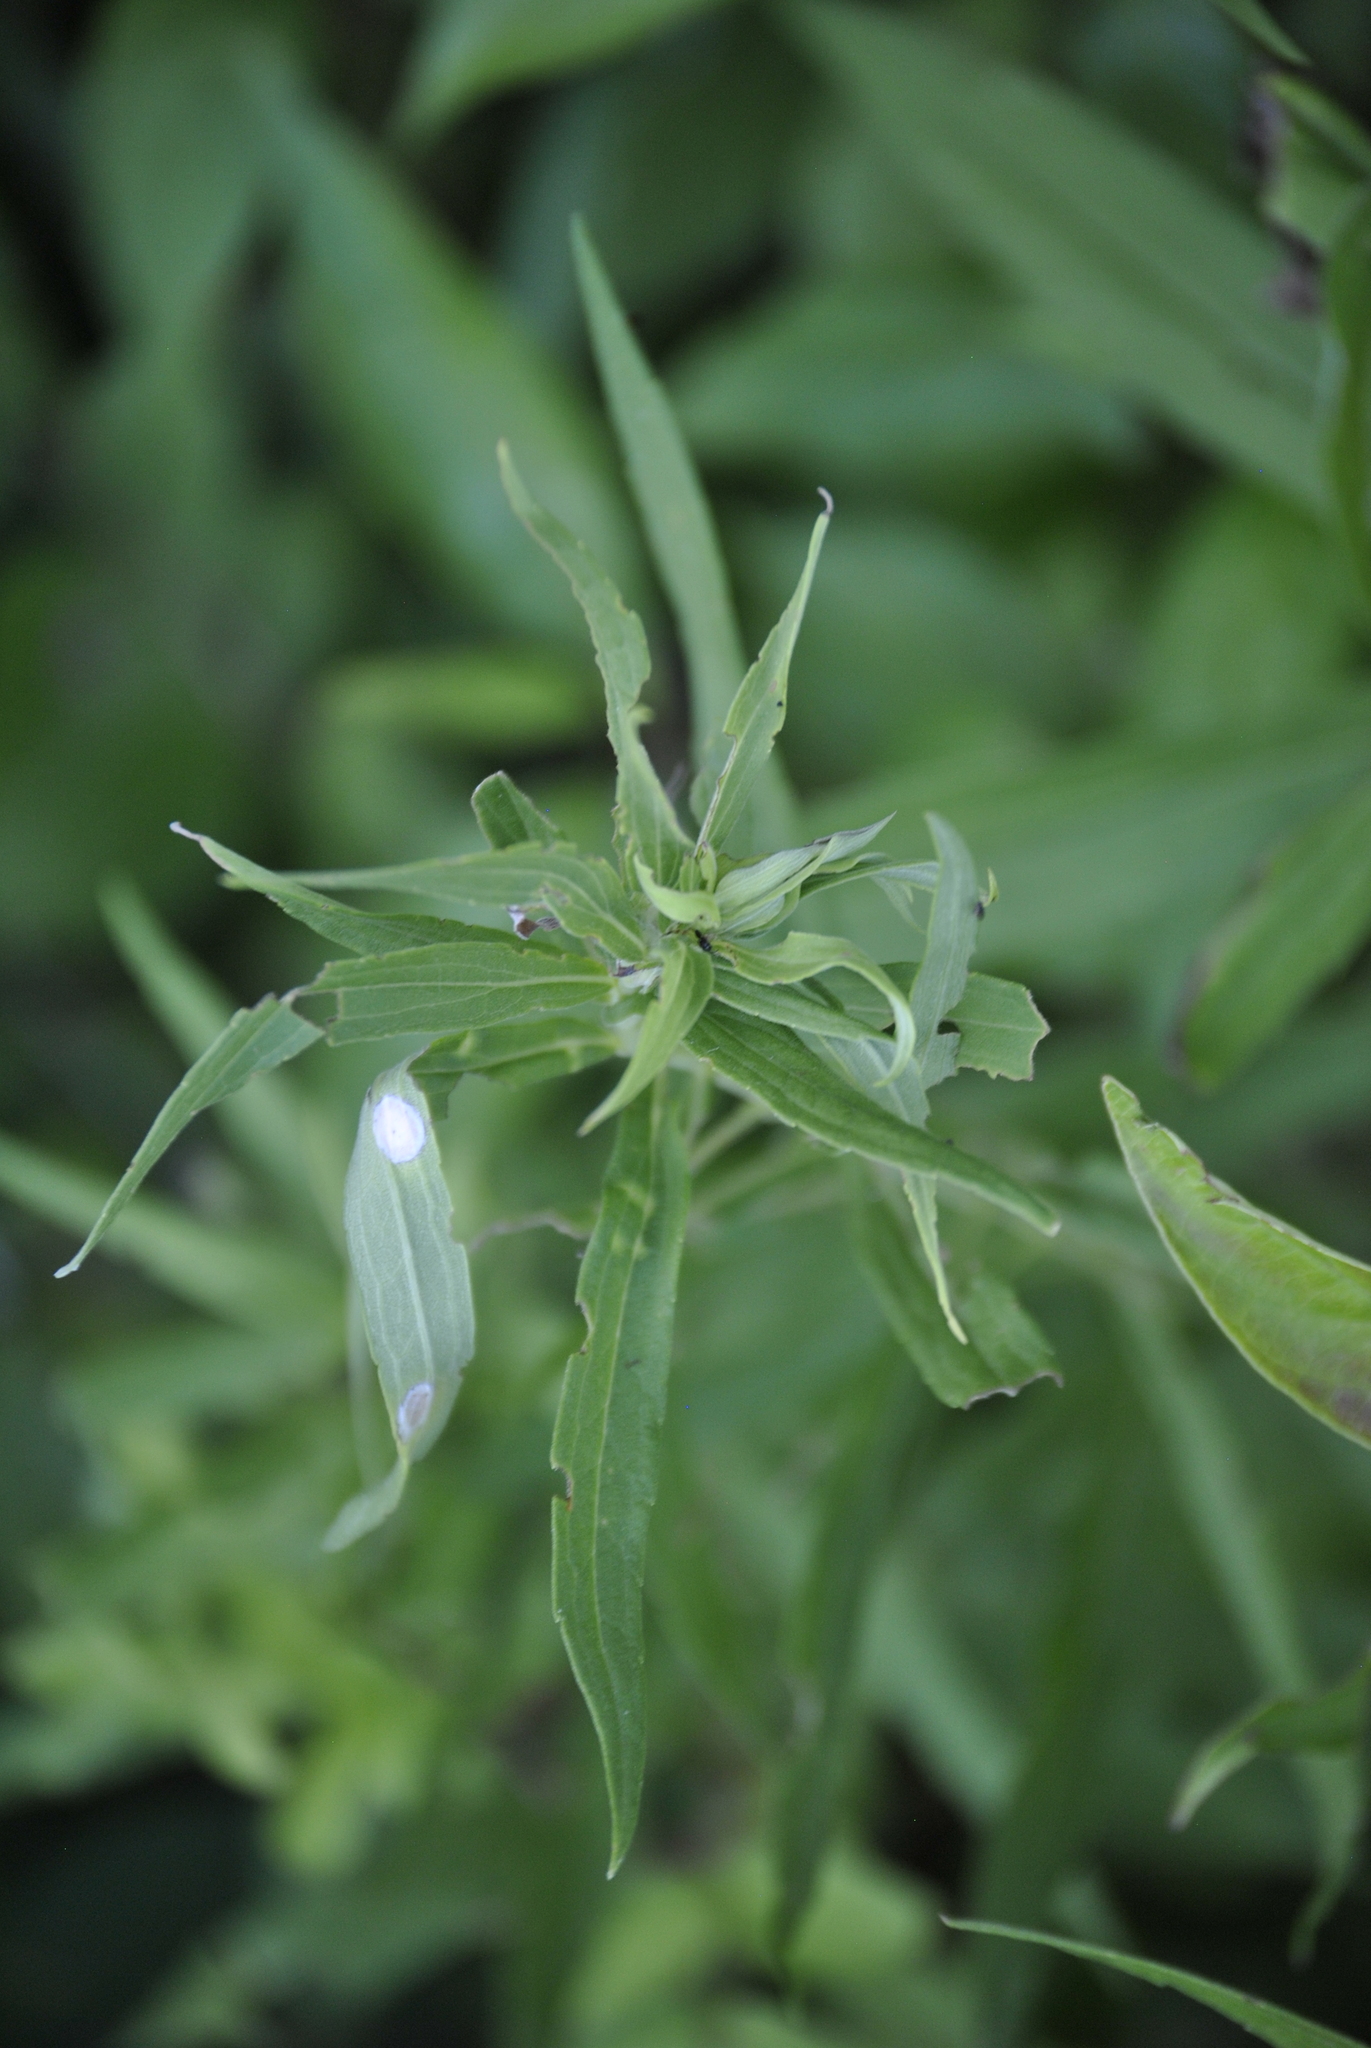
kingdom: Animalia
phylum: Arthropoda
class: Insecta
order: Diptera
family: Cecidomyiidae
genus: Asteromyia
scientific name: Asteromyia carbonifera
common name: Carbonifera goldenrod gall midge
